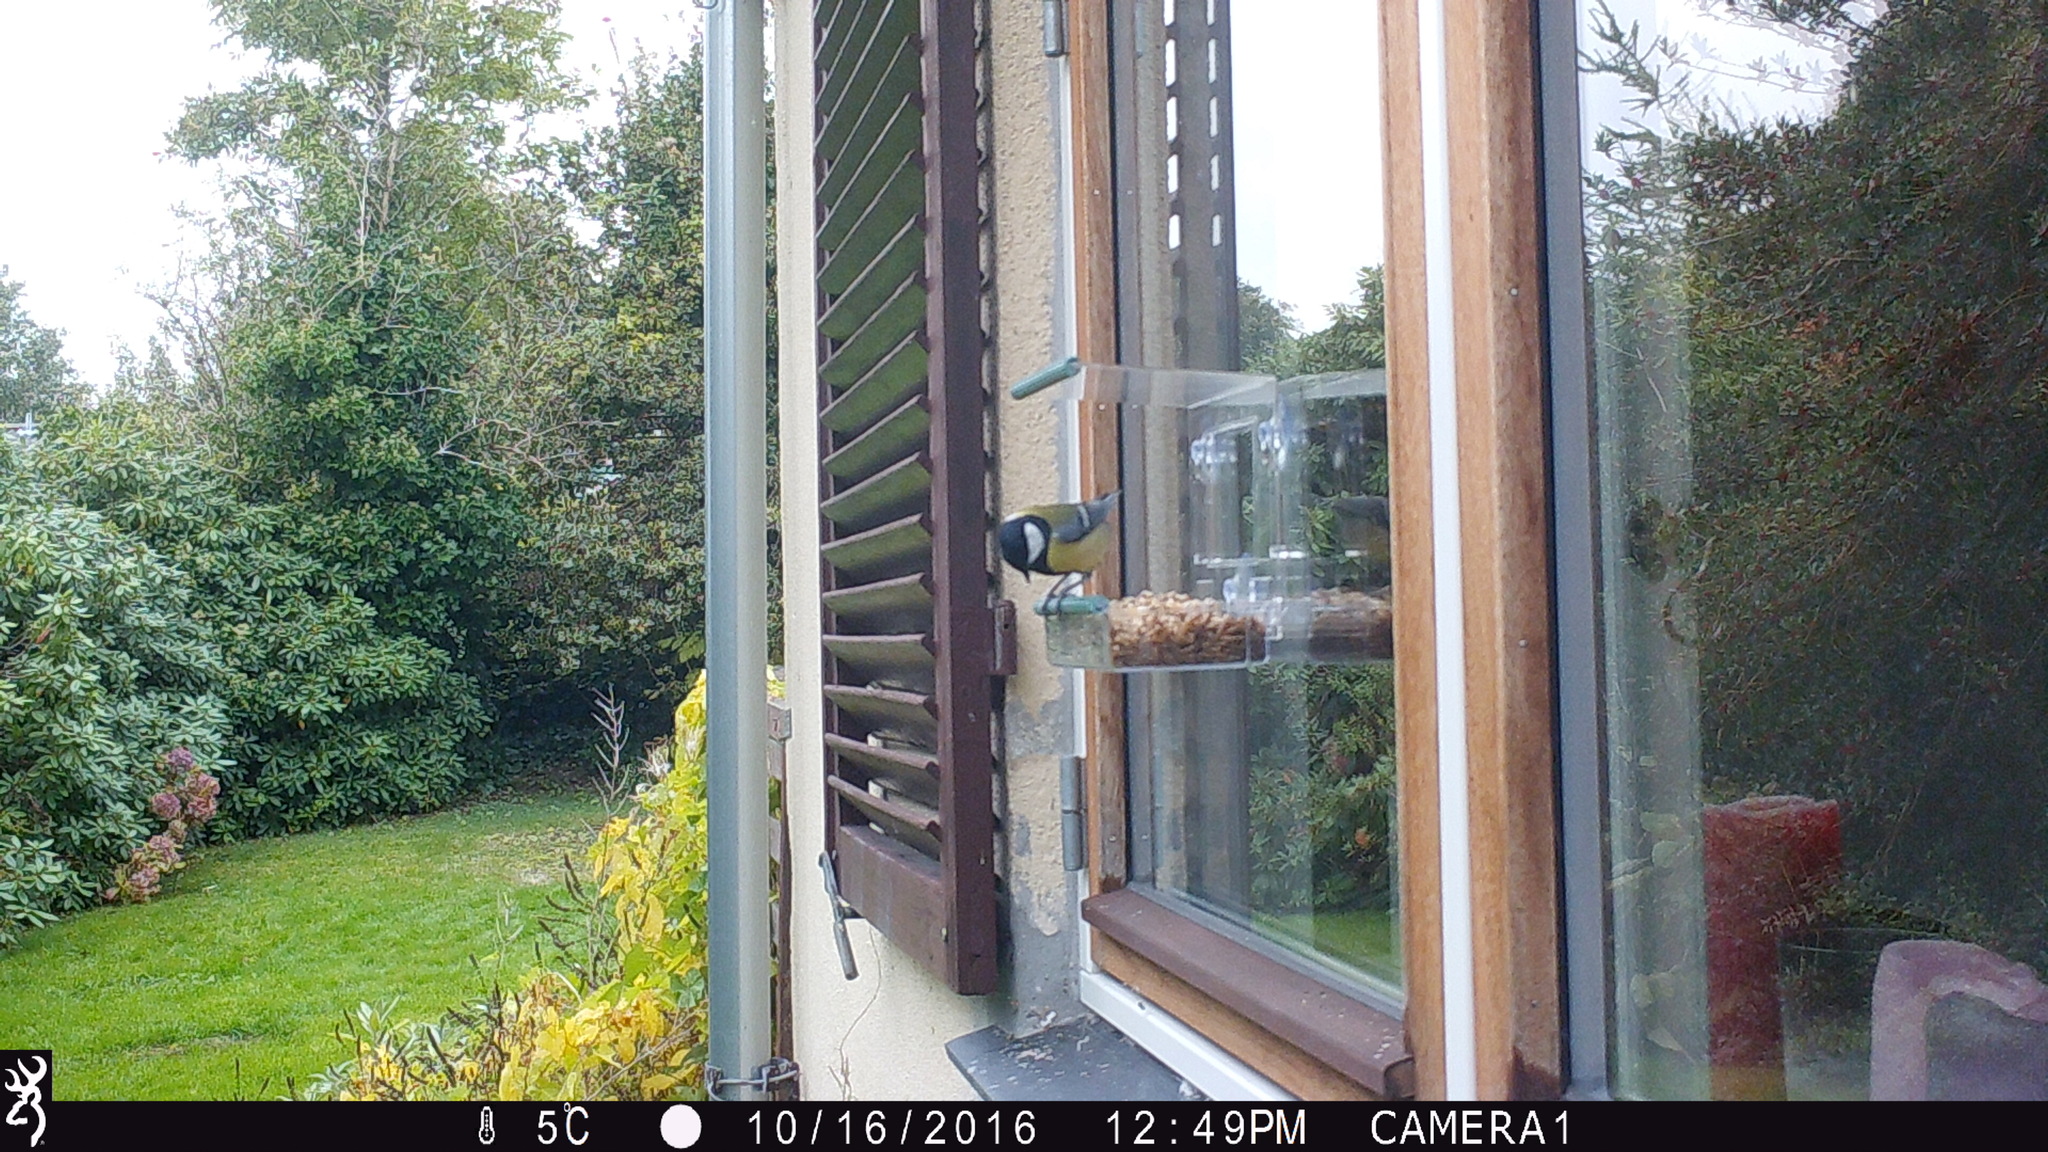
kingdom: Animalia
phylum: Chordata
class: Aves
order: Passeriformes
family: Paridae
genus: Parus
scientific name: Parus major
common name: Great tit
